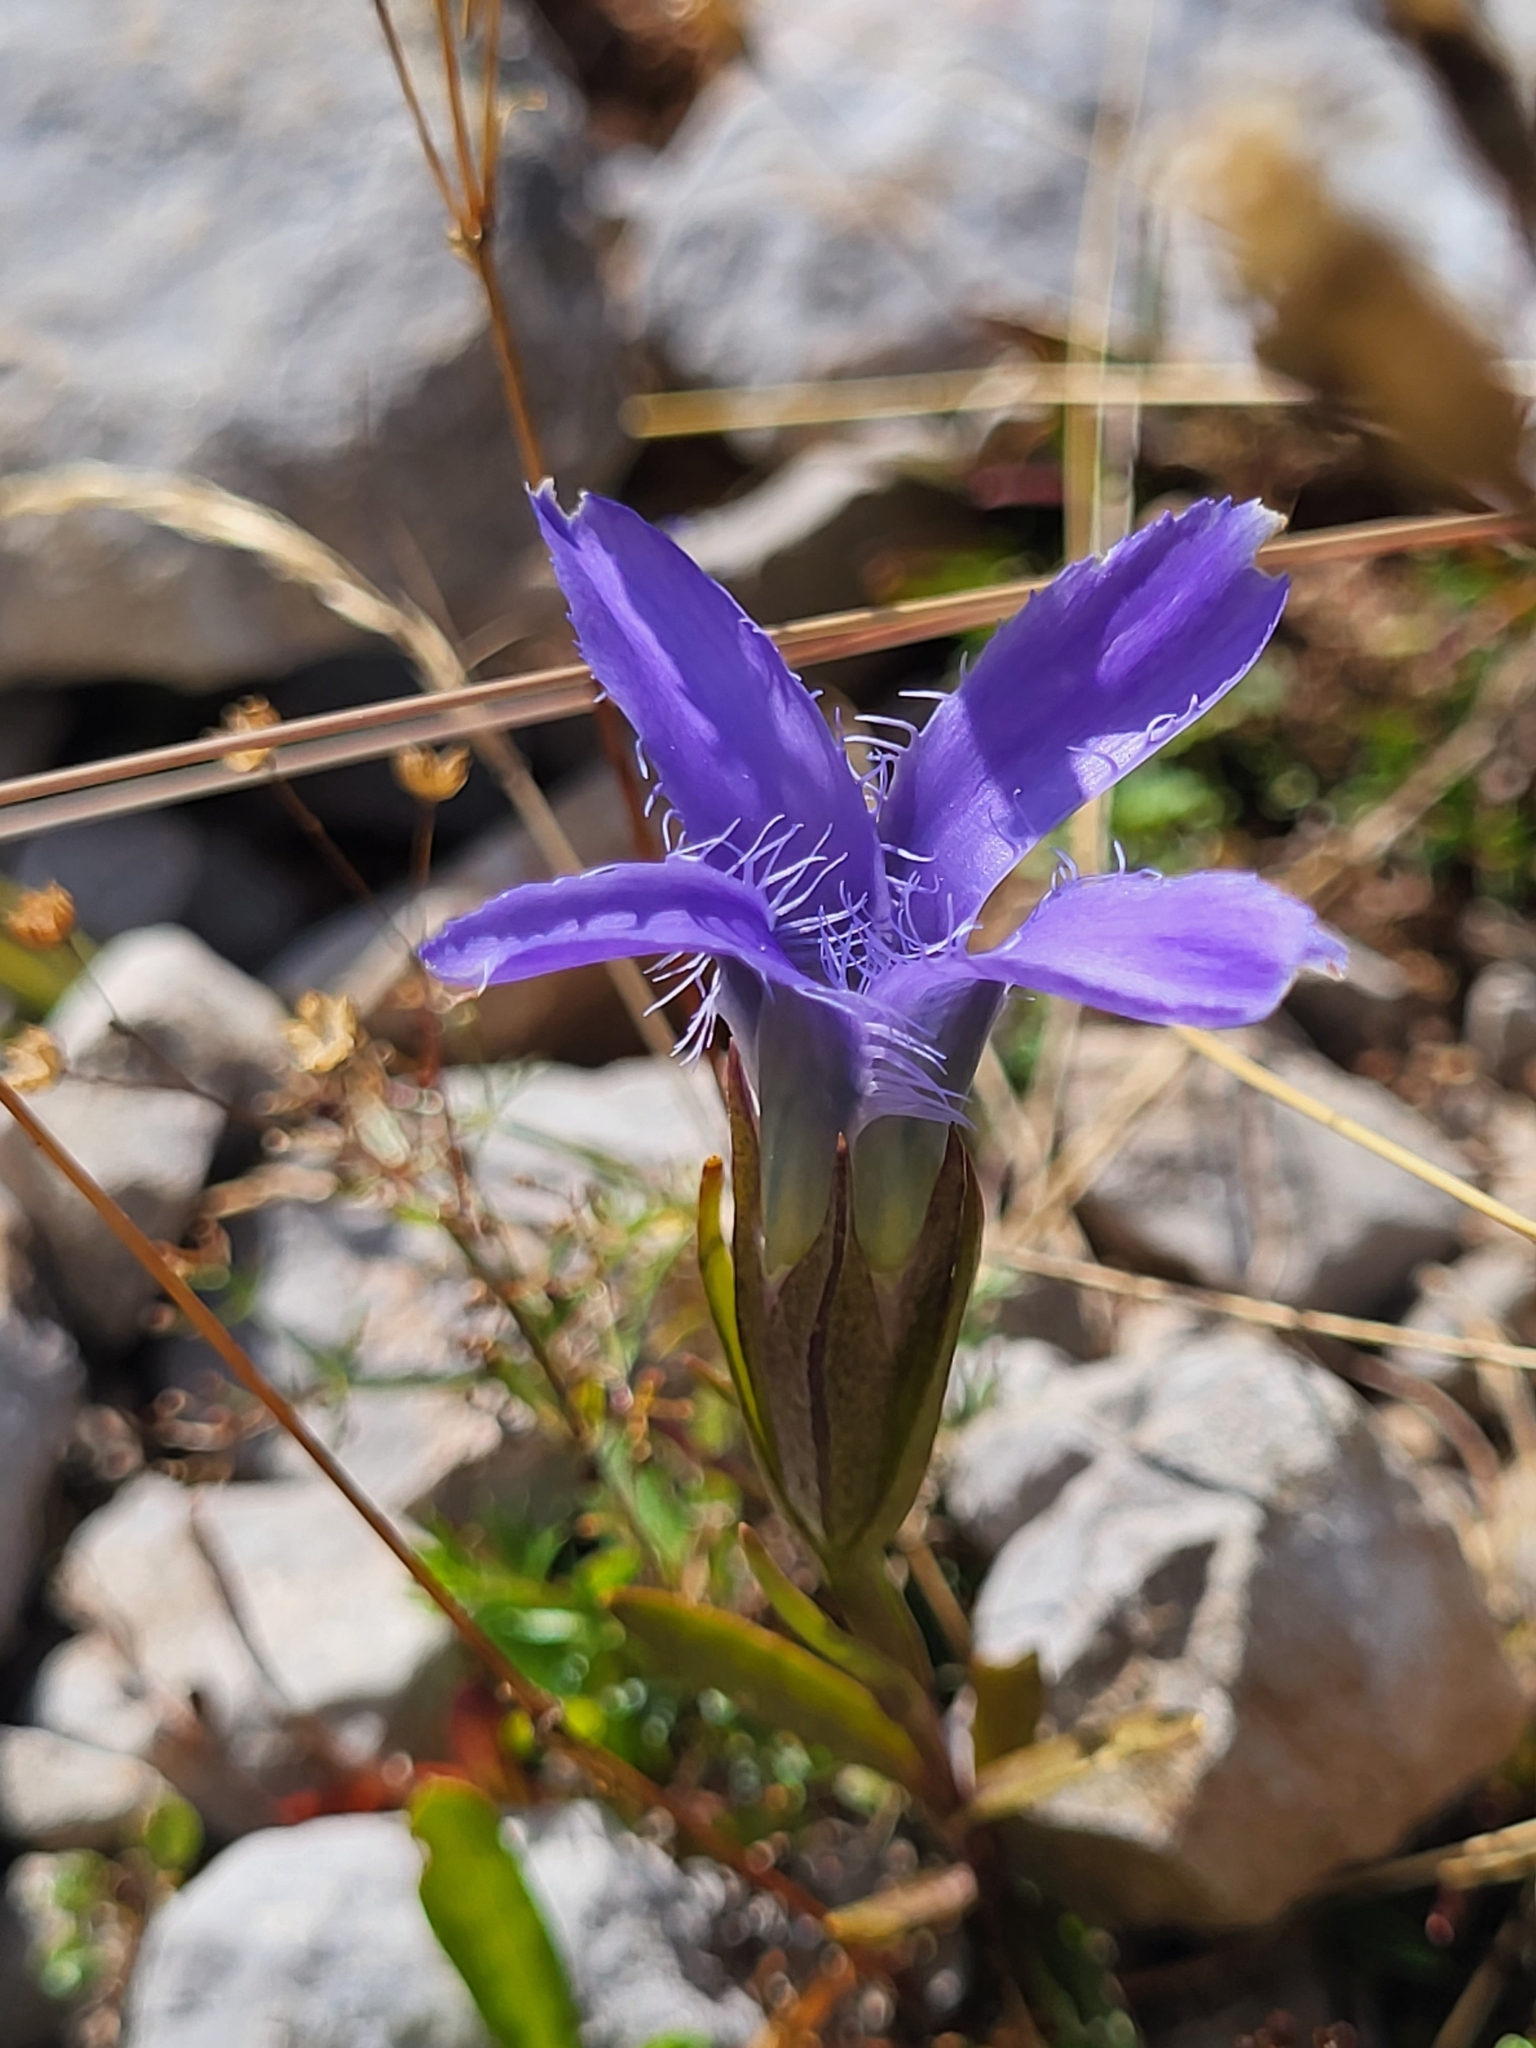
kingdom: Plantae
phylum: Tracheophyta
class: Magnoliopsida
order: Gentianales
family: Gentianaceae
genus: Gentianopsis
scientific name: Gentianopsis ciliata
